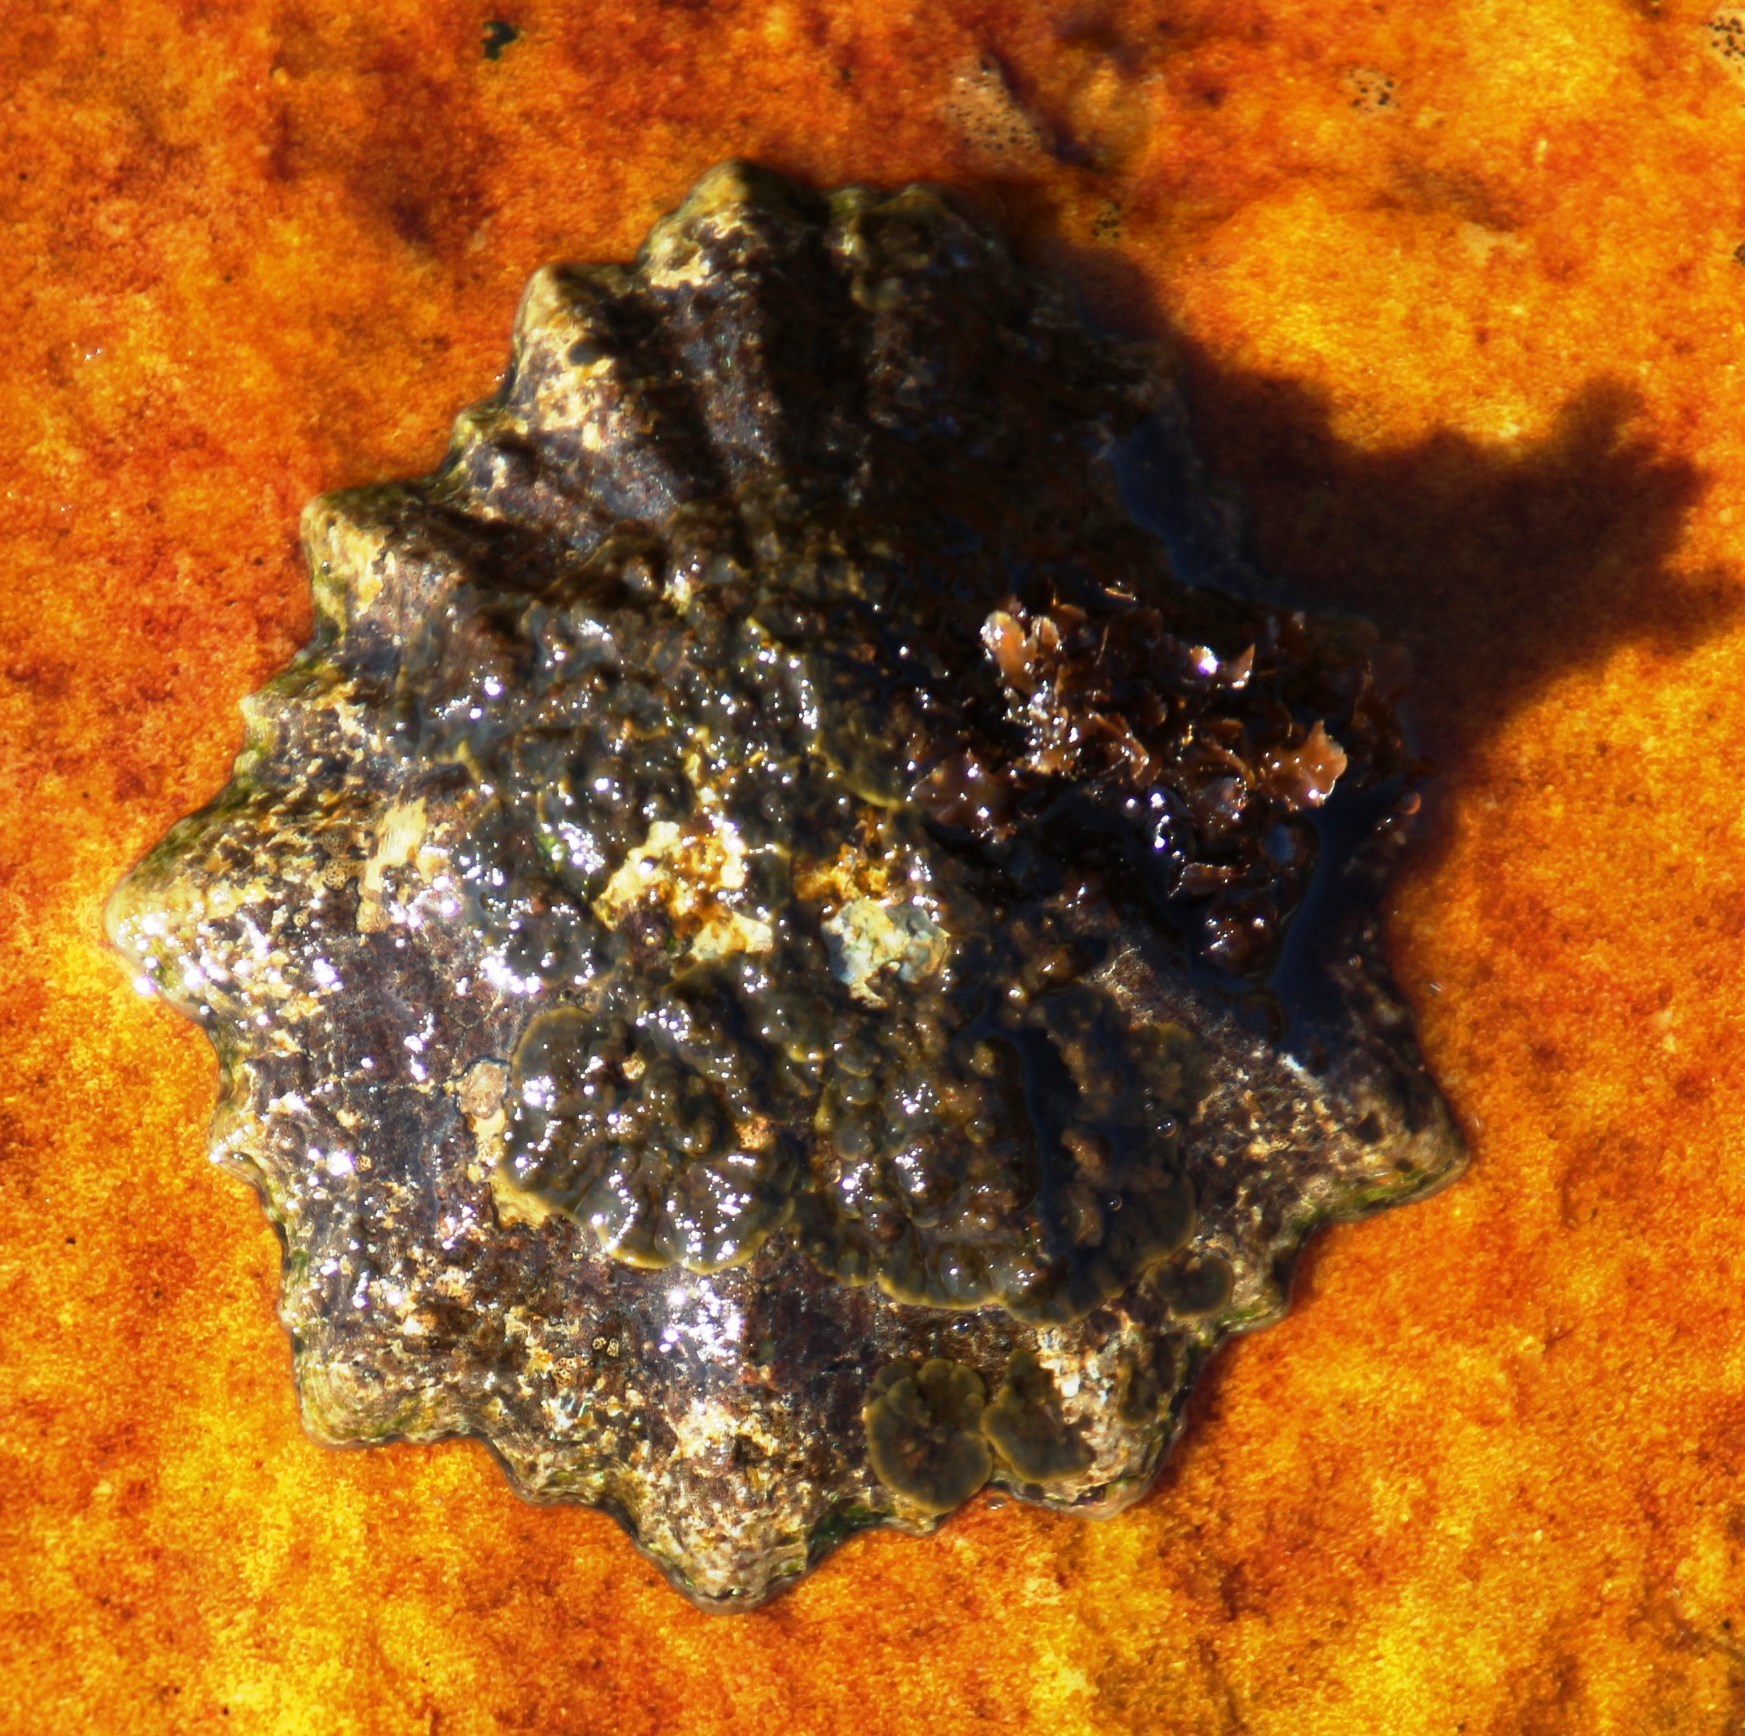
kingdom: Animalia
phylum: Mollusca
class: Gastropoda
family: Patellidae
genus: Scutellastra
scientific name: Scutellastra tabularis
